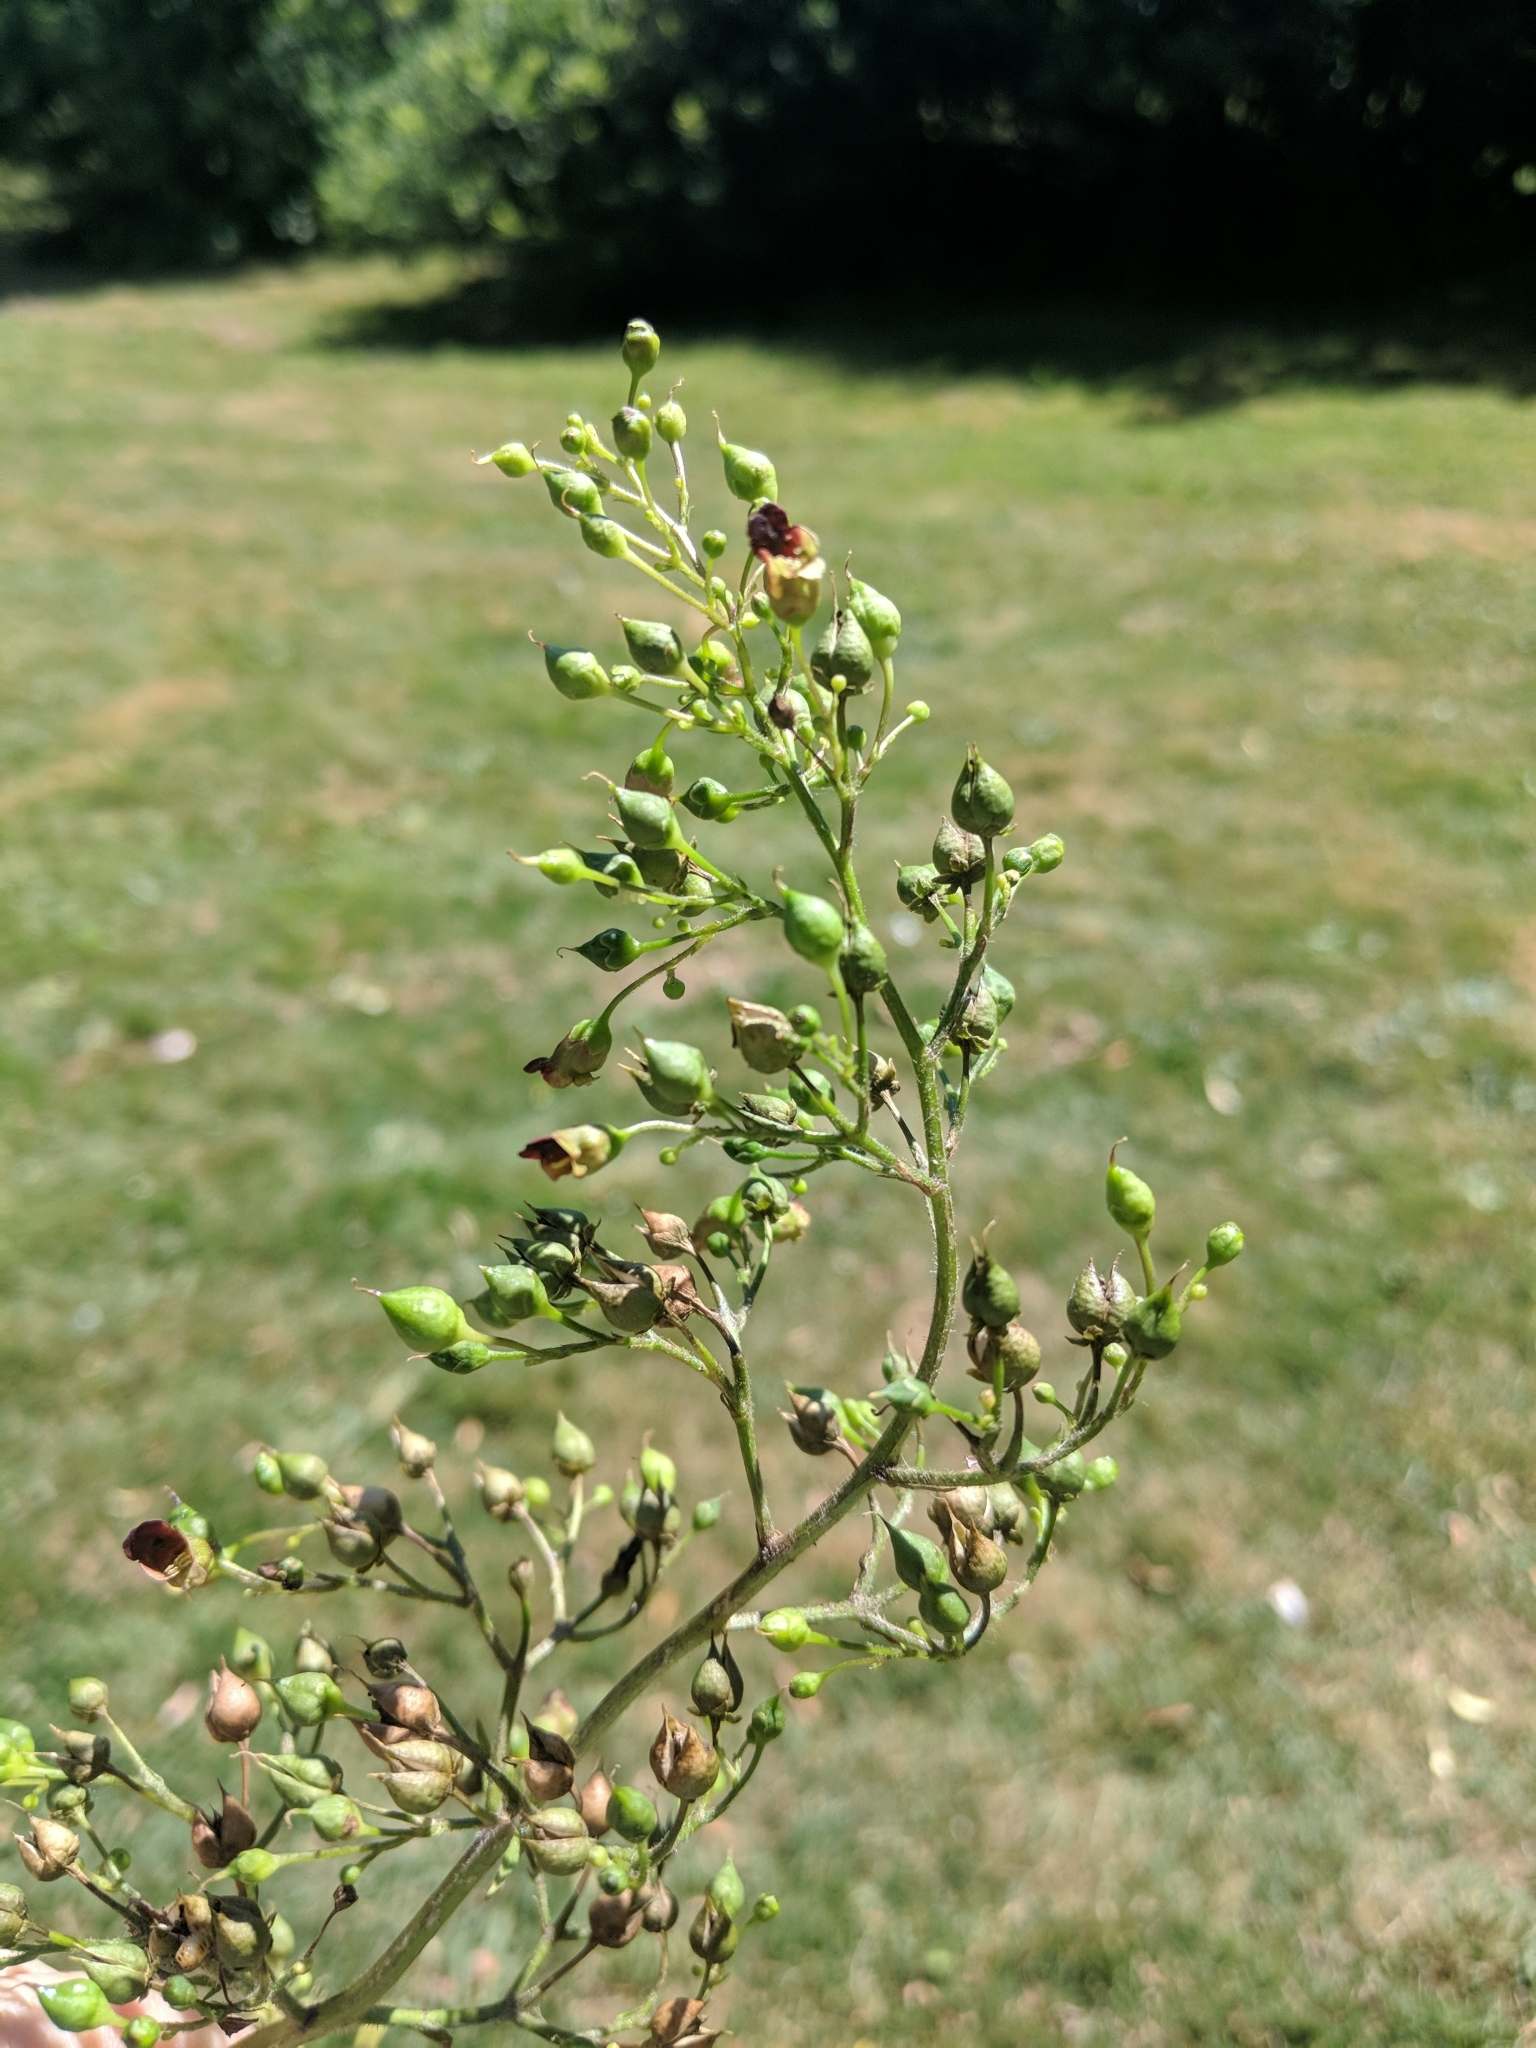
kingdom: Plantae
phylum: Tracheophyta
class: Magnoliopsida
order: Lamiales
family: Scrophulariaceae
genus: Scrophularia
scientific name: Scrophularia nodosa
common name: Common figwort
